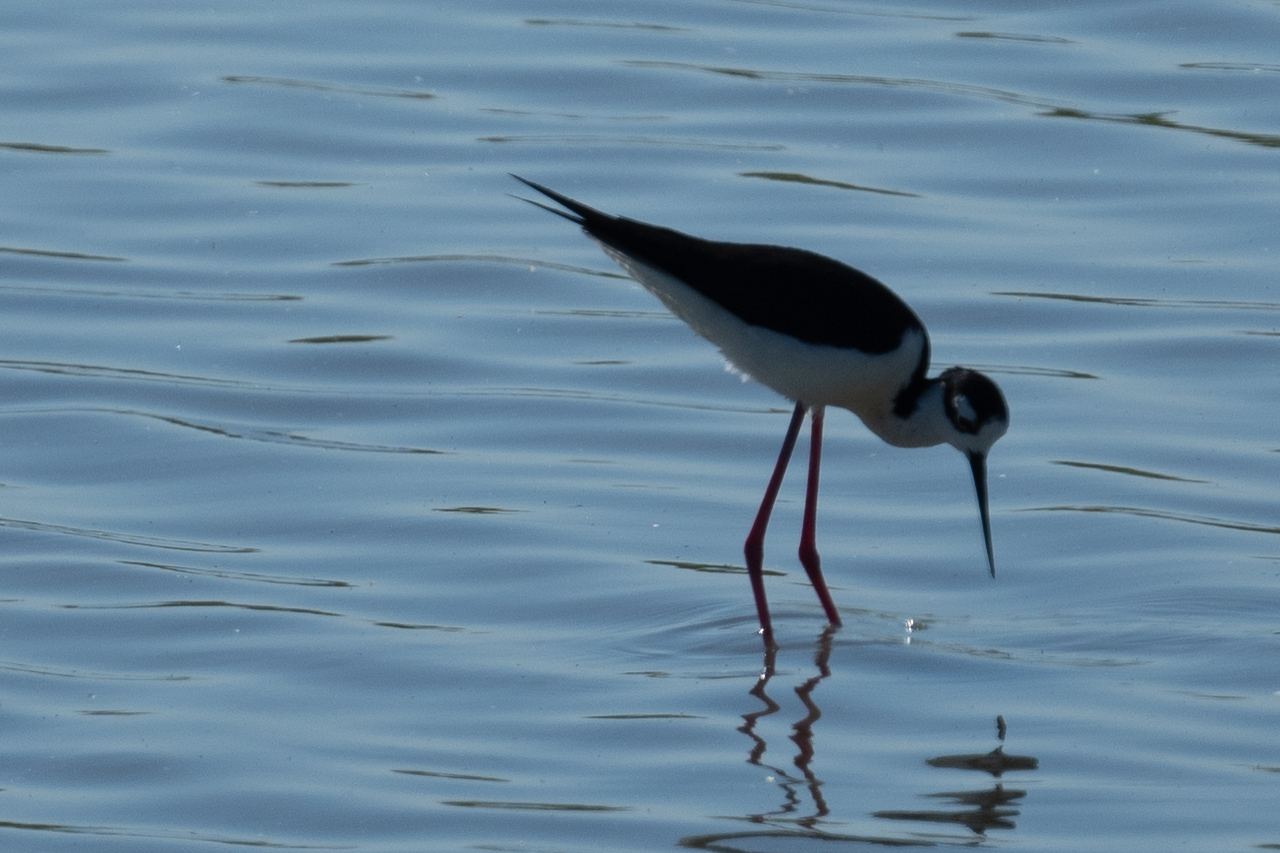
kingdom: Animalia
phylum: Chordata
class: Aves
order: Charadriiformes
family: Recurvirostridae
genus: Himantopus
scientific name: Himantopus mexicanus
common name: Black-necked stilt
